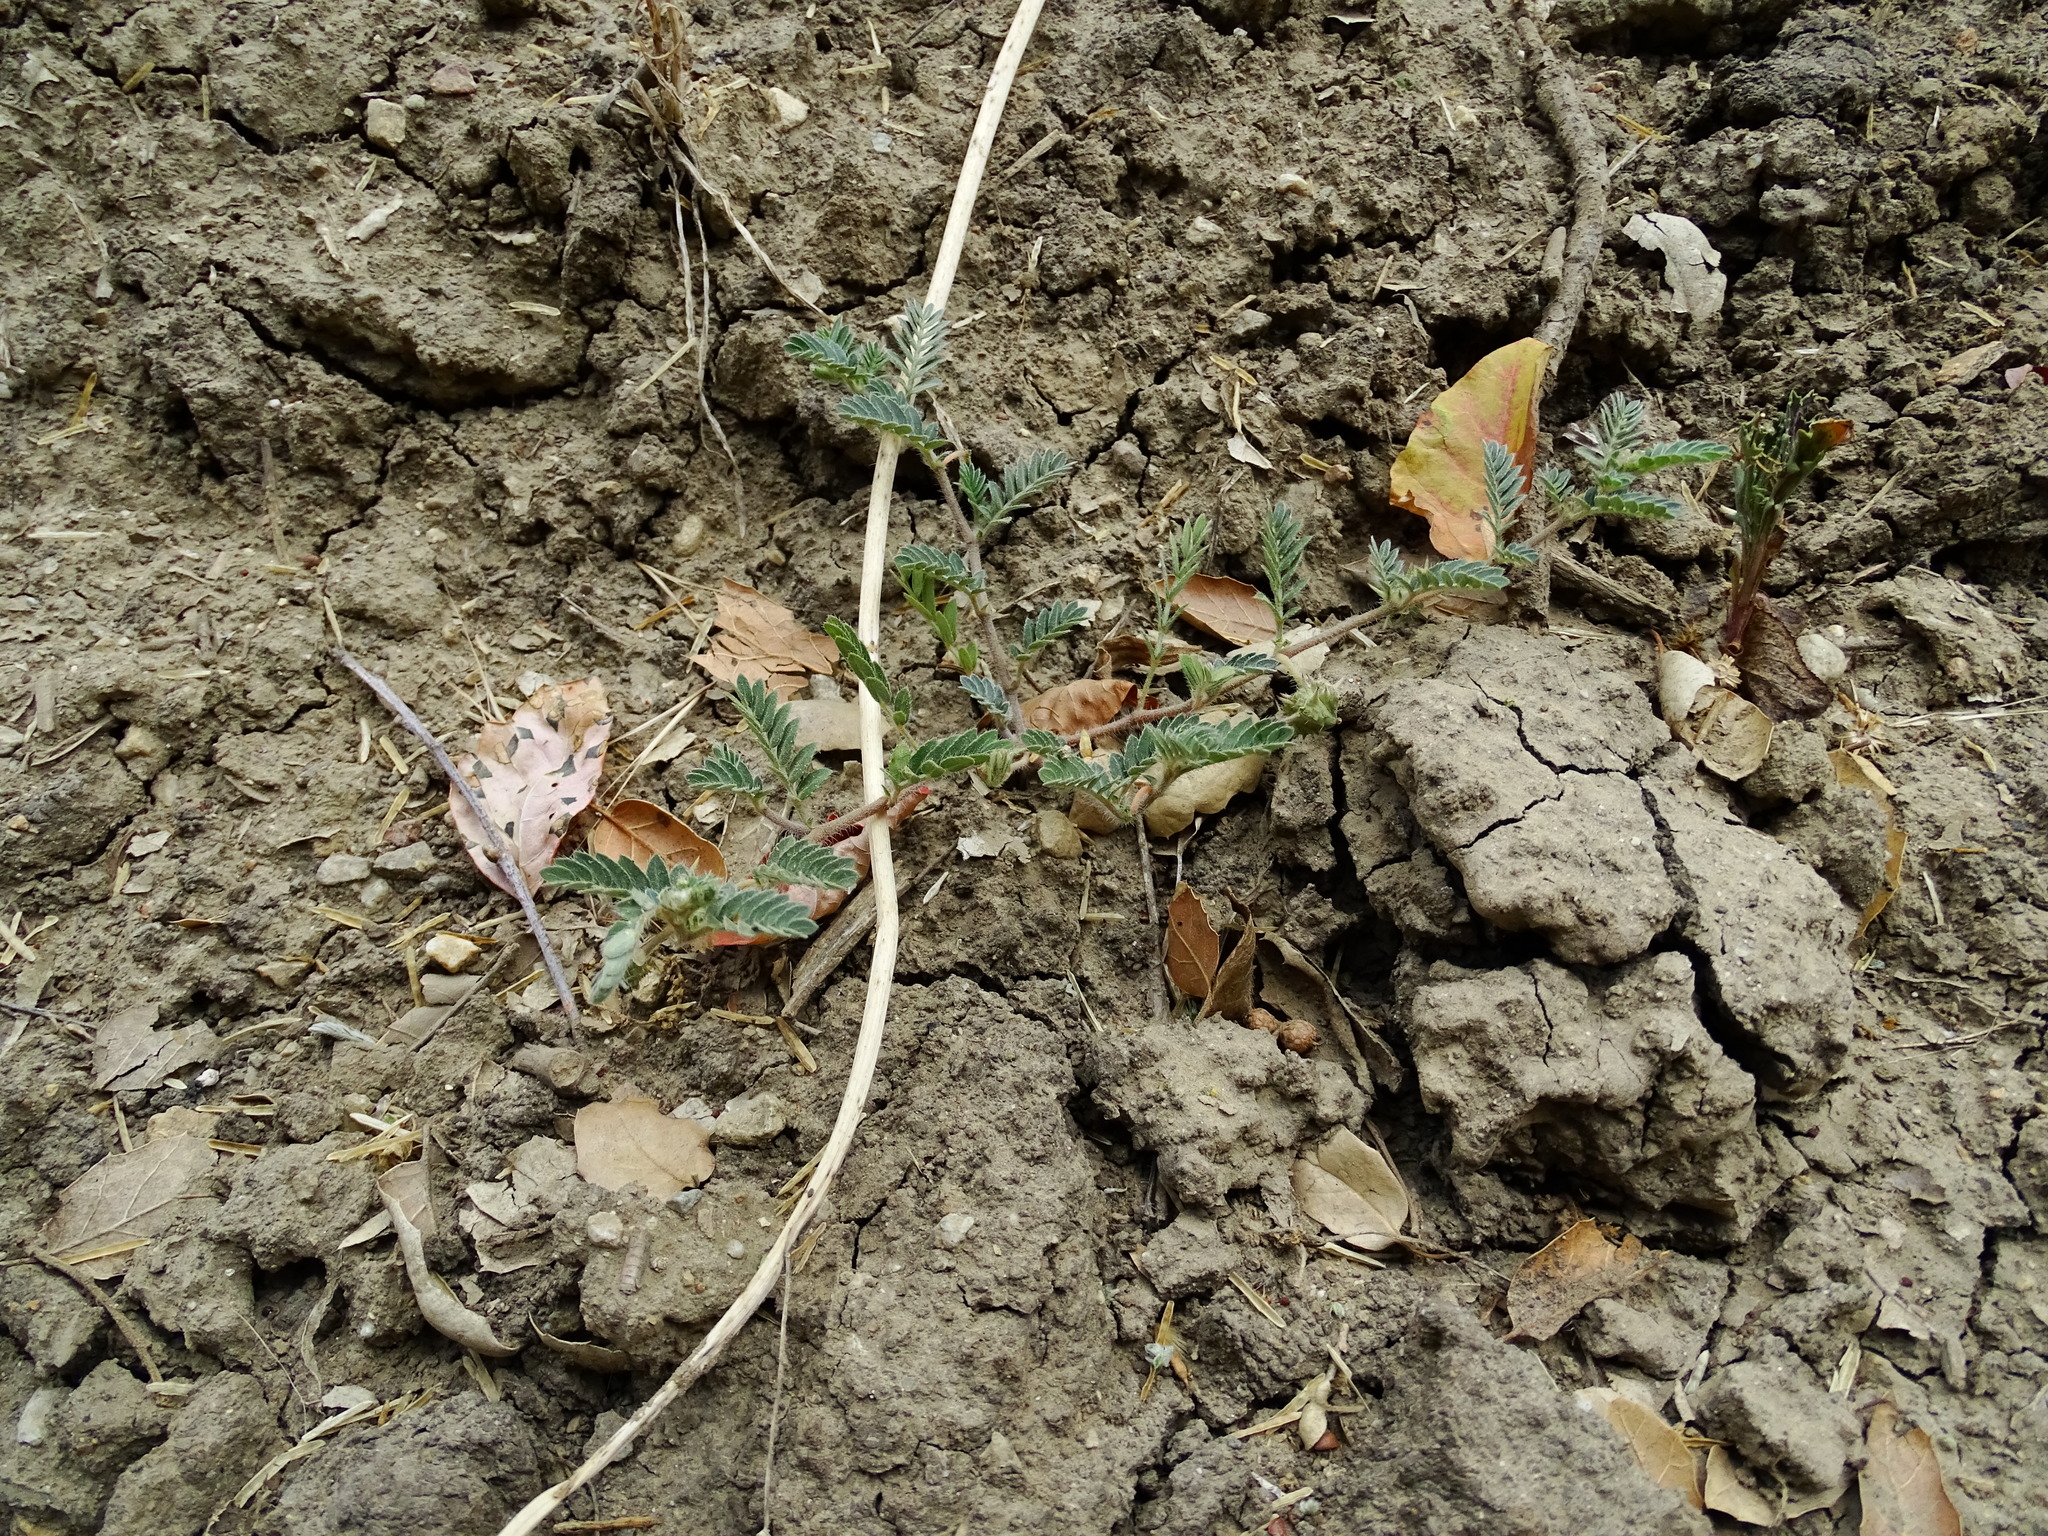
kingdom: Plantae
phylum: Tracheophyta
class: Magnoliopsida
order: Zygophyllales
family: Zygophyllaceae
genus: Tribulus
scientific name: Tribulus terrestris
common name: Puncturevine
